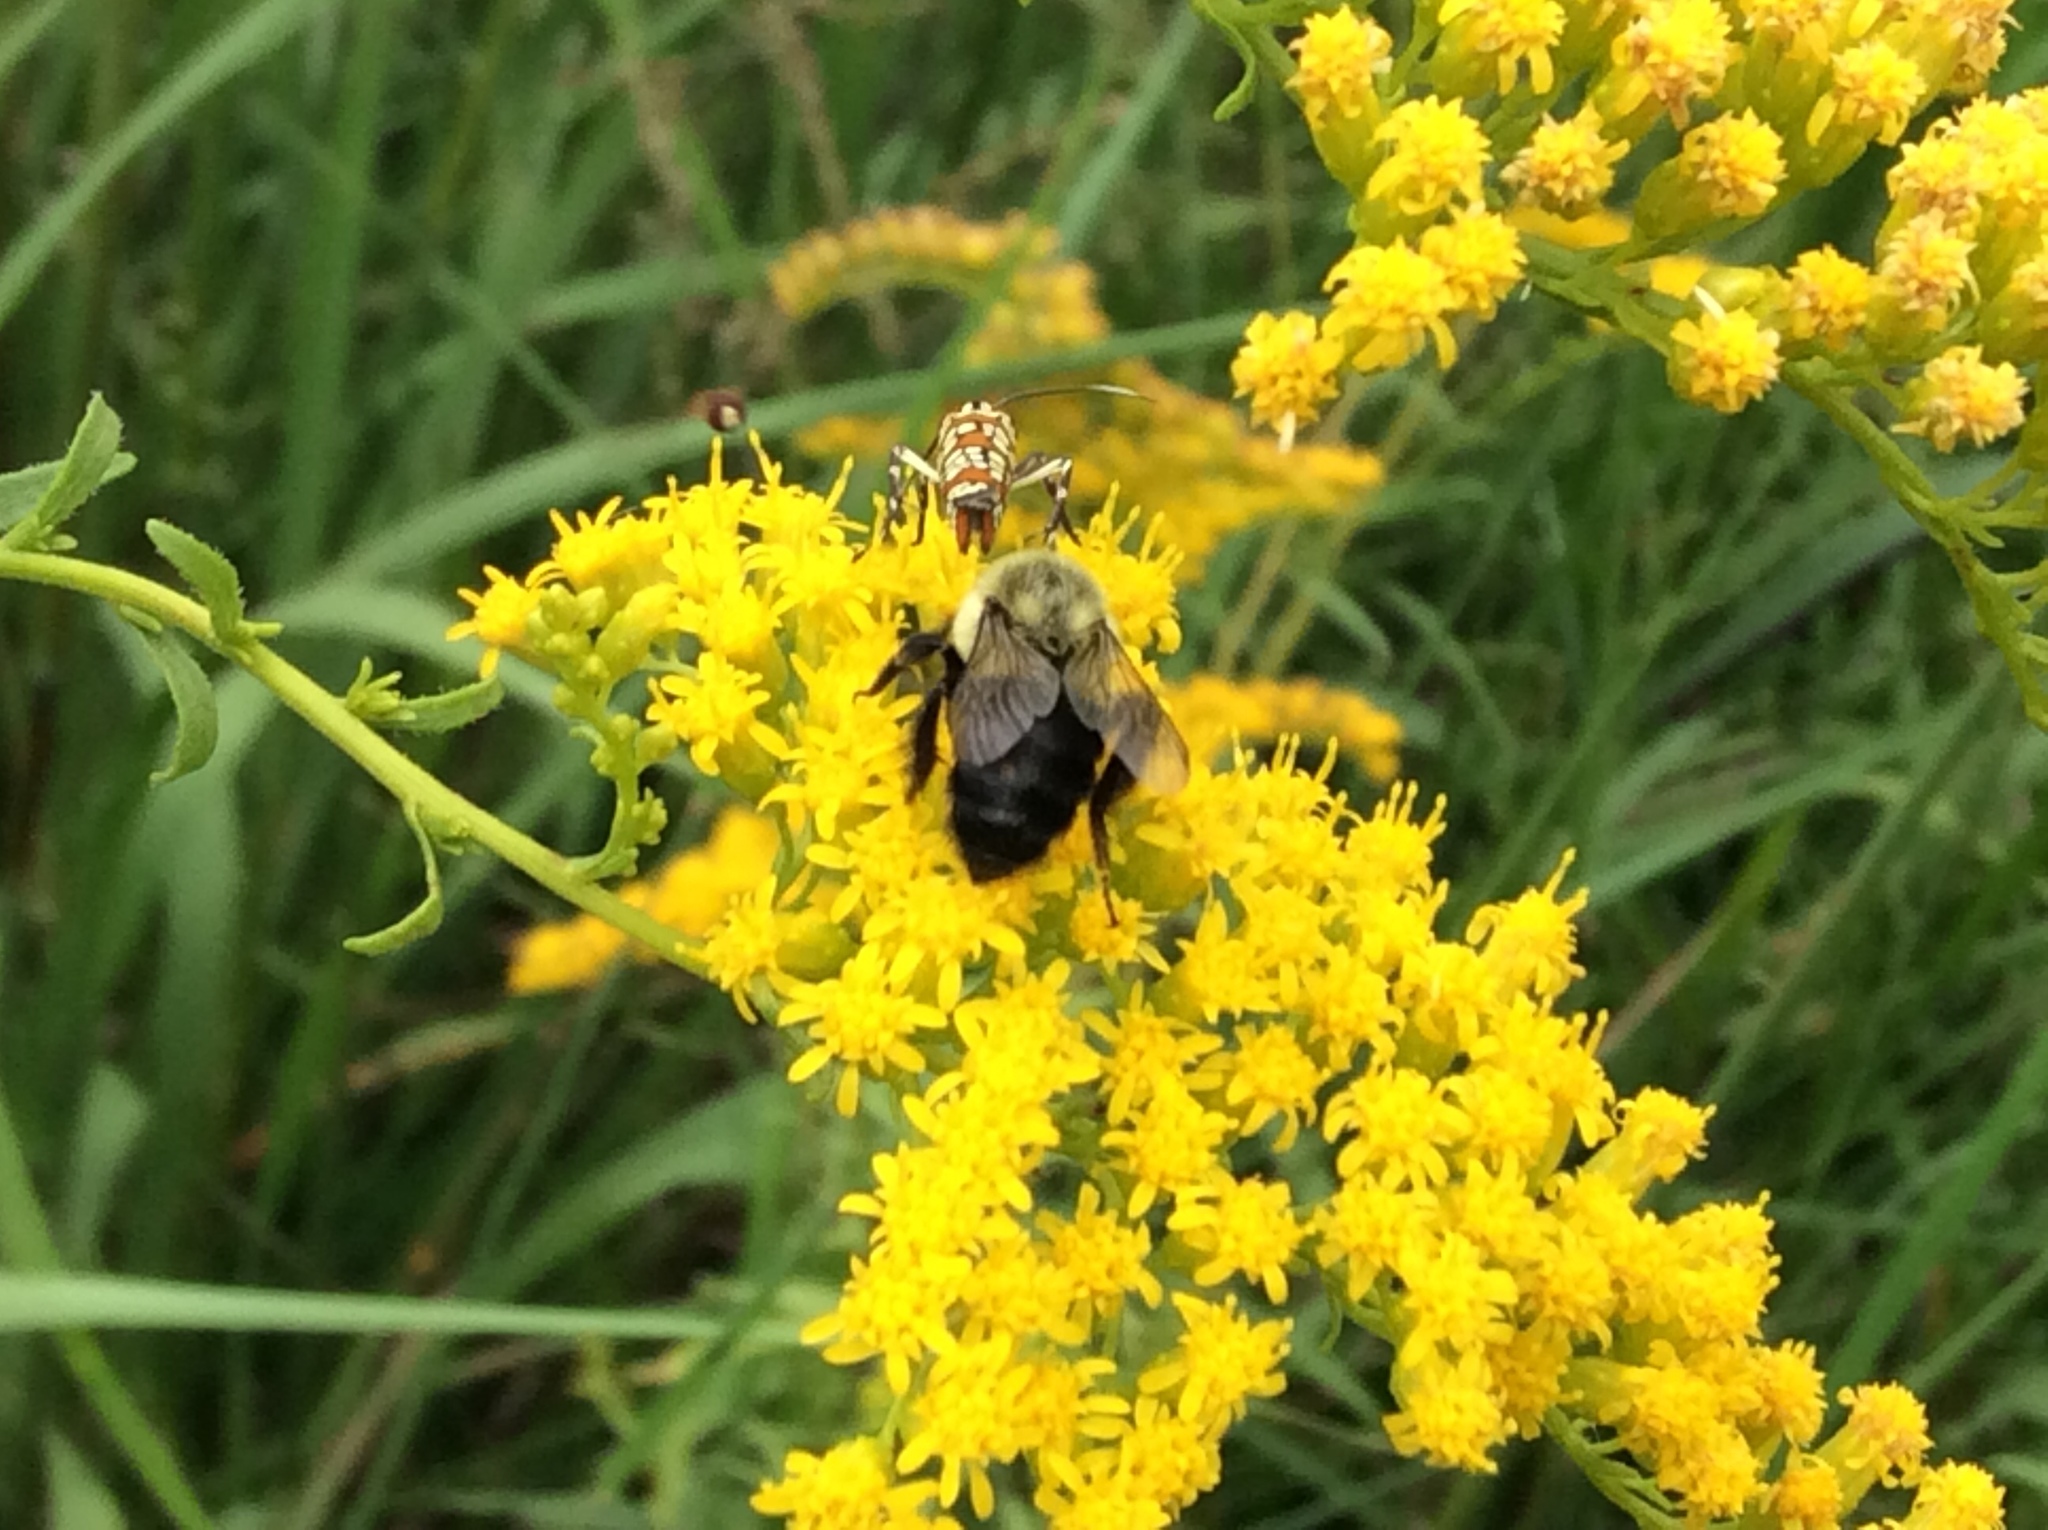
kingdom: Animalia
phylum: Arthropoda
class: Insecta
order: Hymenoptera
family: Apidae
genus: Bombus
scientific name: Bombus impatiens
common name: Common eastern bumble bee
